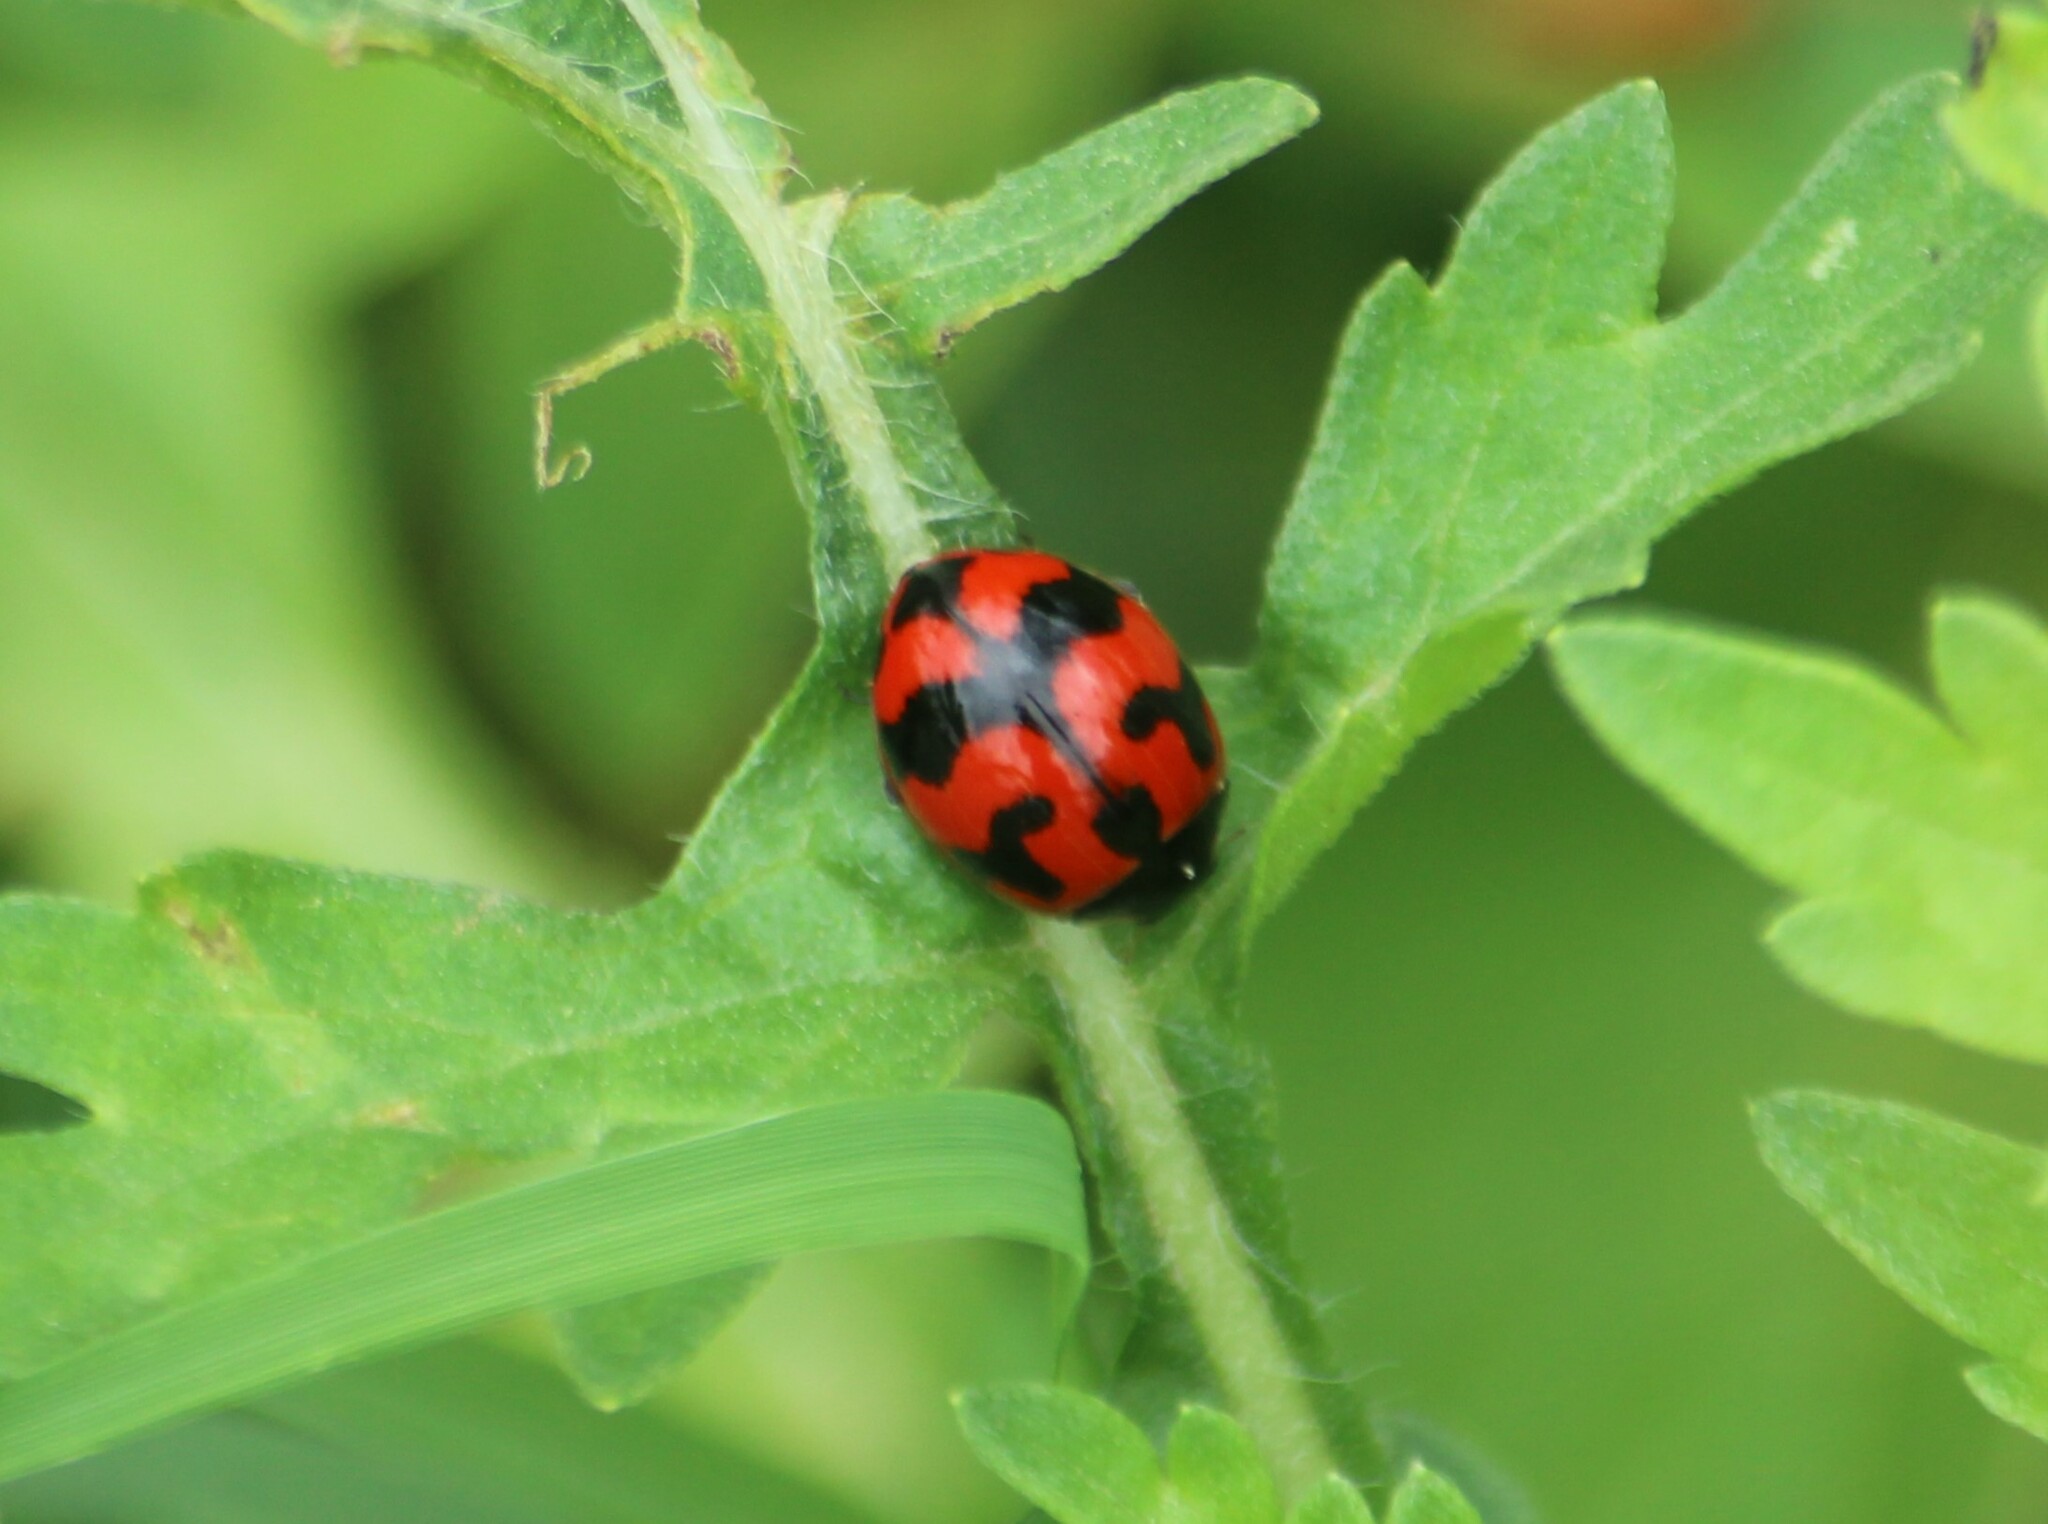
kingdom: Animalia
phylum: Arthropoda
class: Insecta
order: Coleoptera
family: Coccinellidae
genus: Coccinella
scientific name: Coccinella transversalis
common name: Transverse lady beetle
